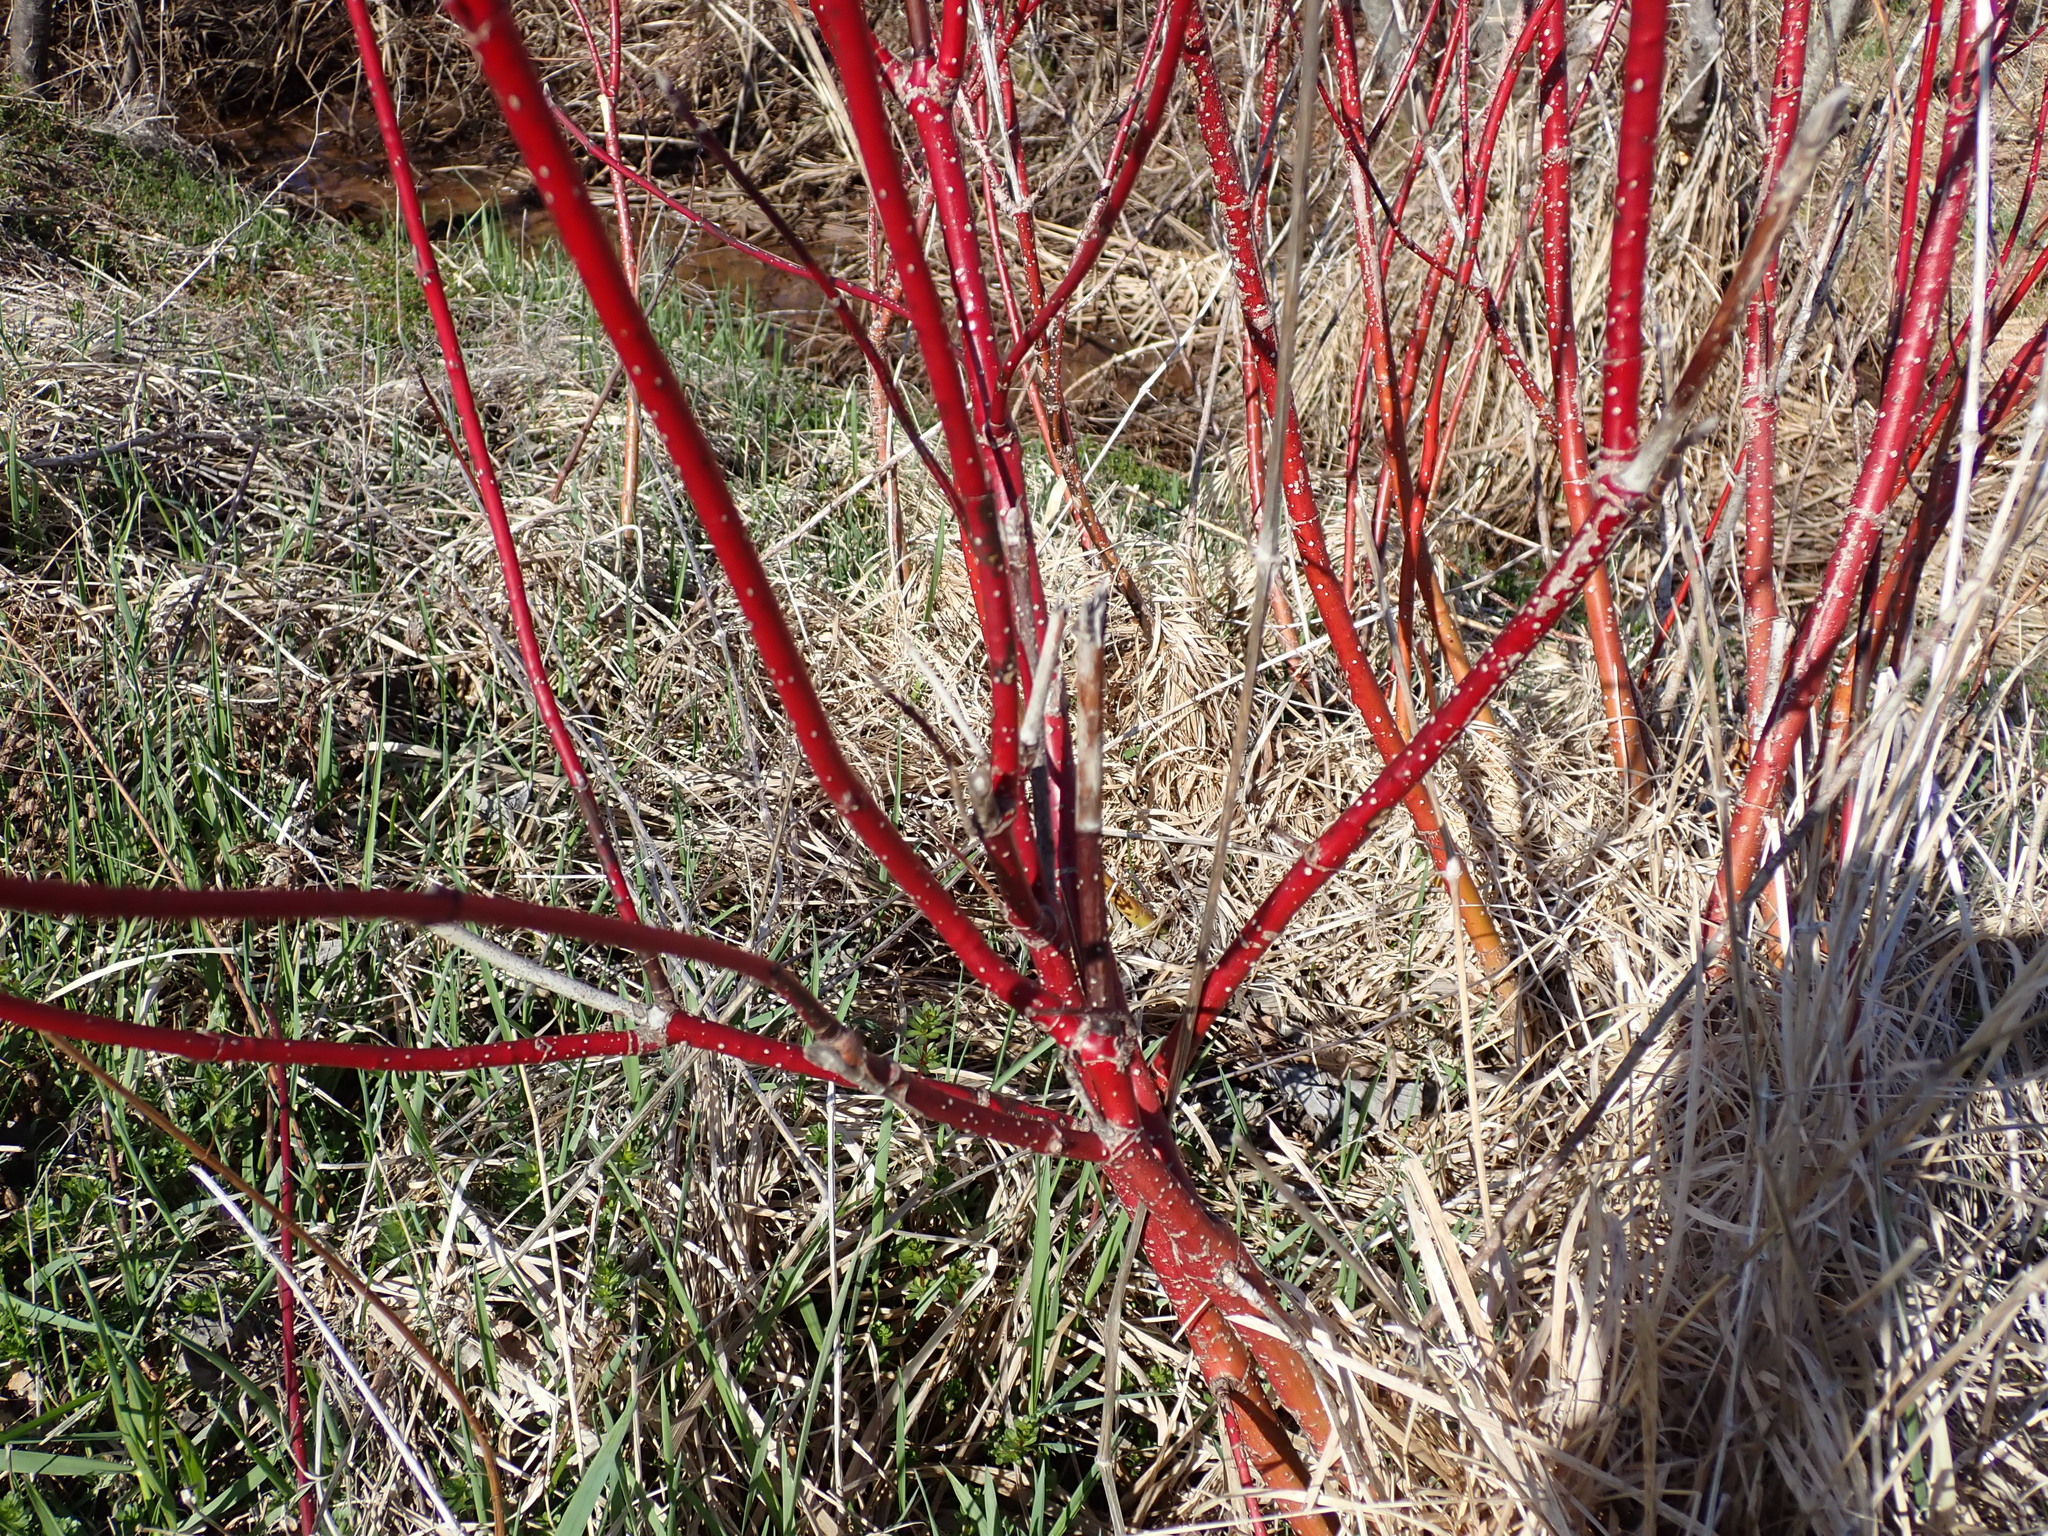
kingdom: Plantae
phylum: Tracheophyta
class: Magnoliopsida
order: Cornales
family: Cornaceae
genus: Cornus
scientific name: Cornus sericea
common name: Red-osier dogwood
